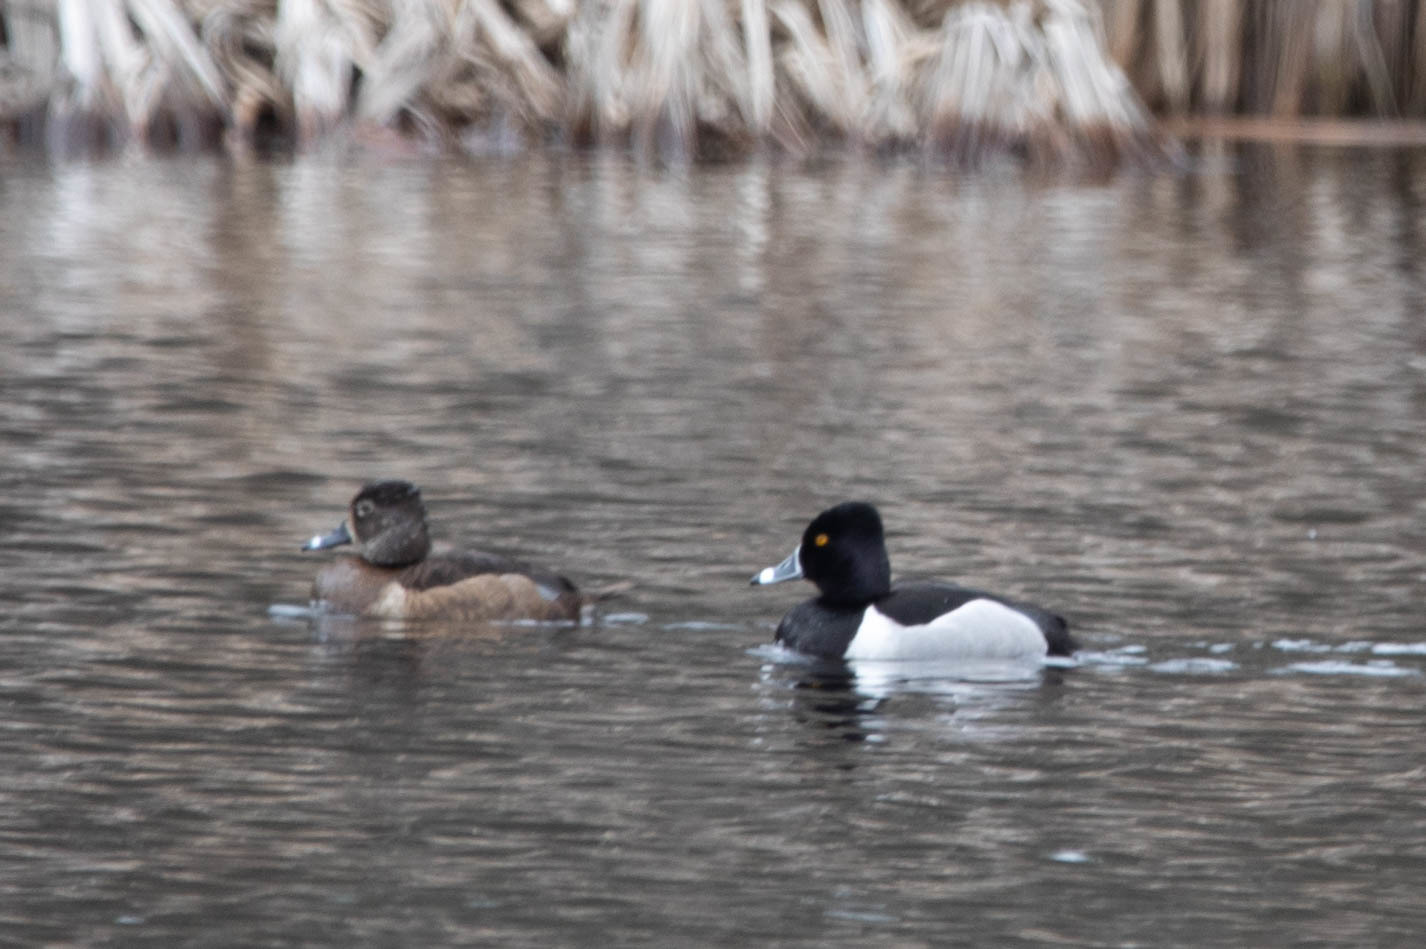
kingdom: Animalia
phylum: Chordata
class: Aves
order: Anseriformes
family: Anatidae
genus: Aythya
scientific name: Aythya collaris
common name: Ring-necked duck
